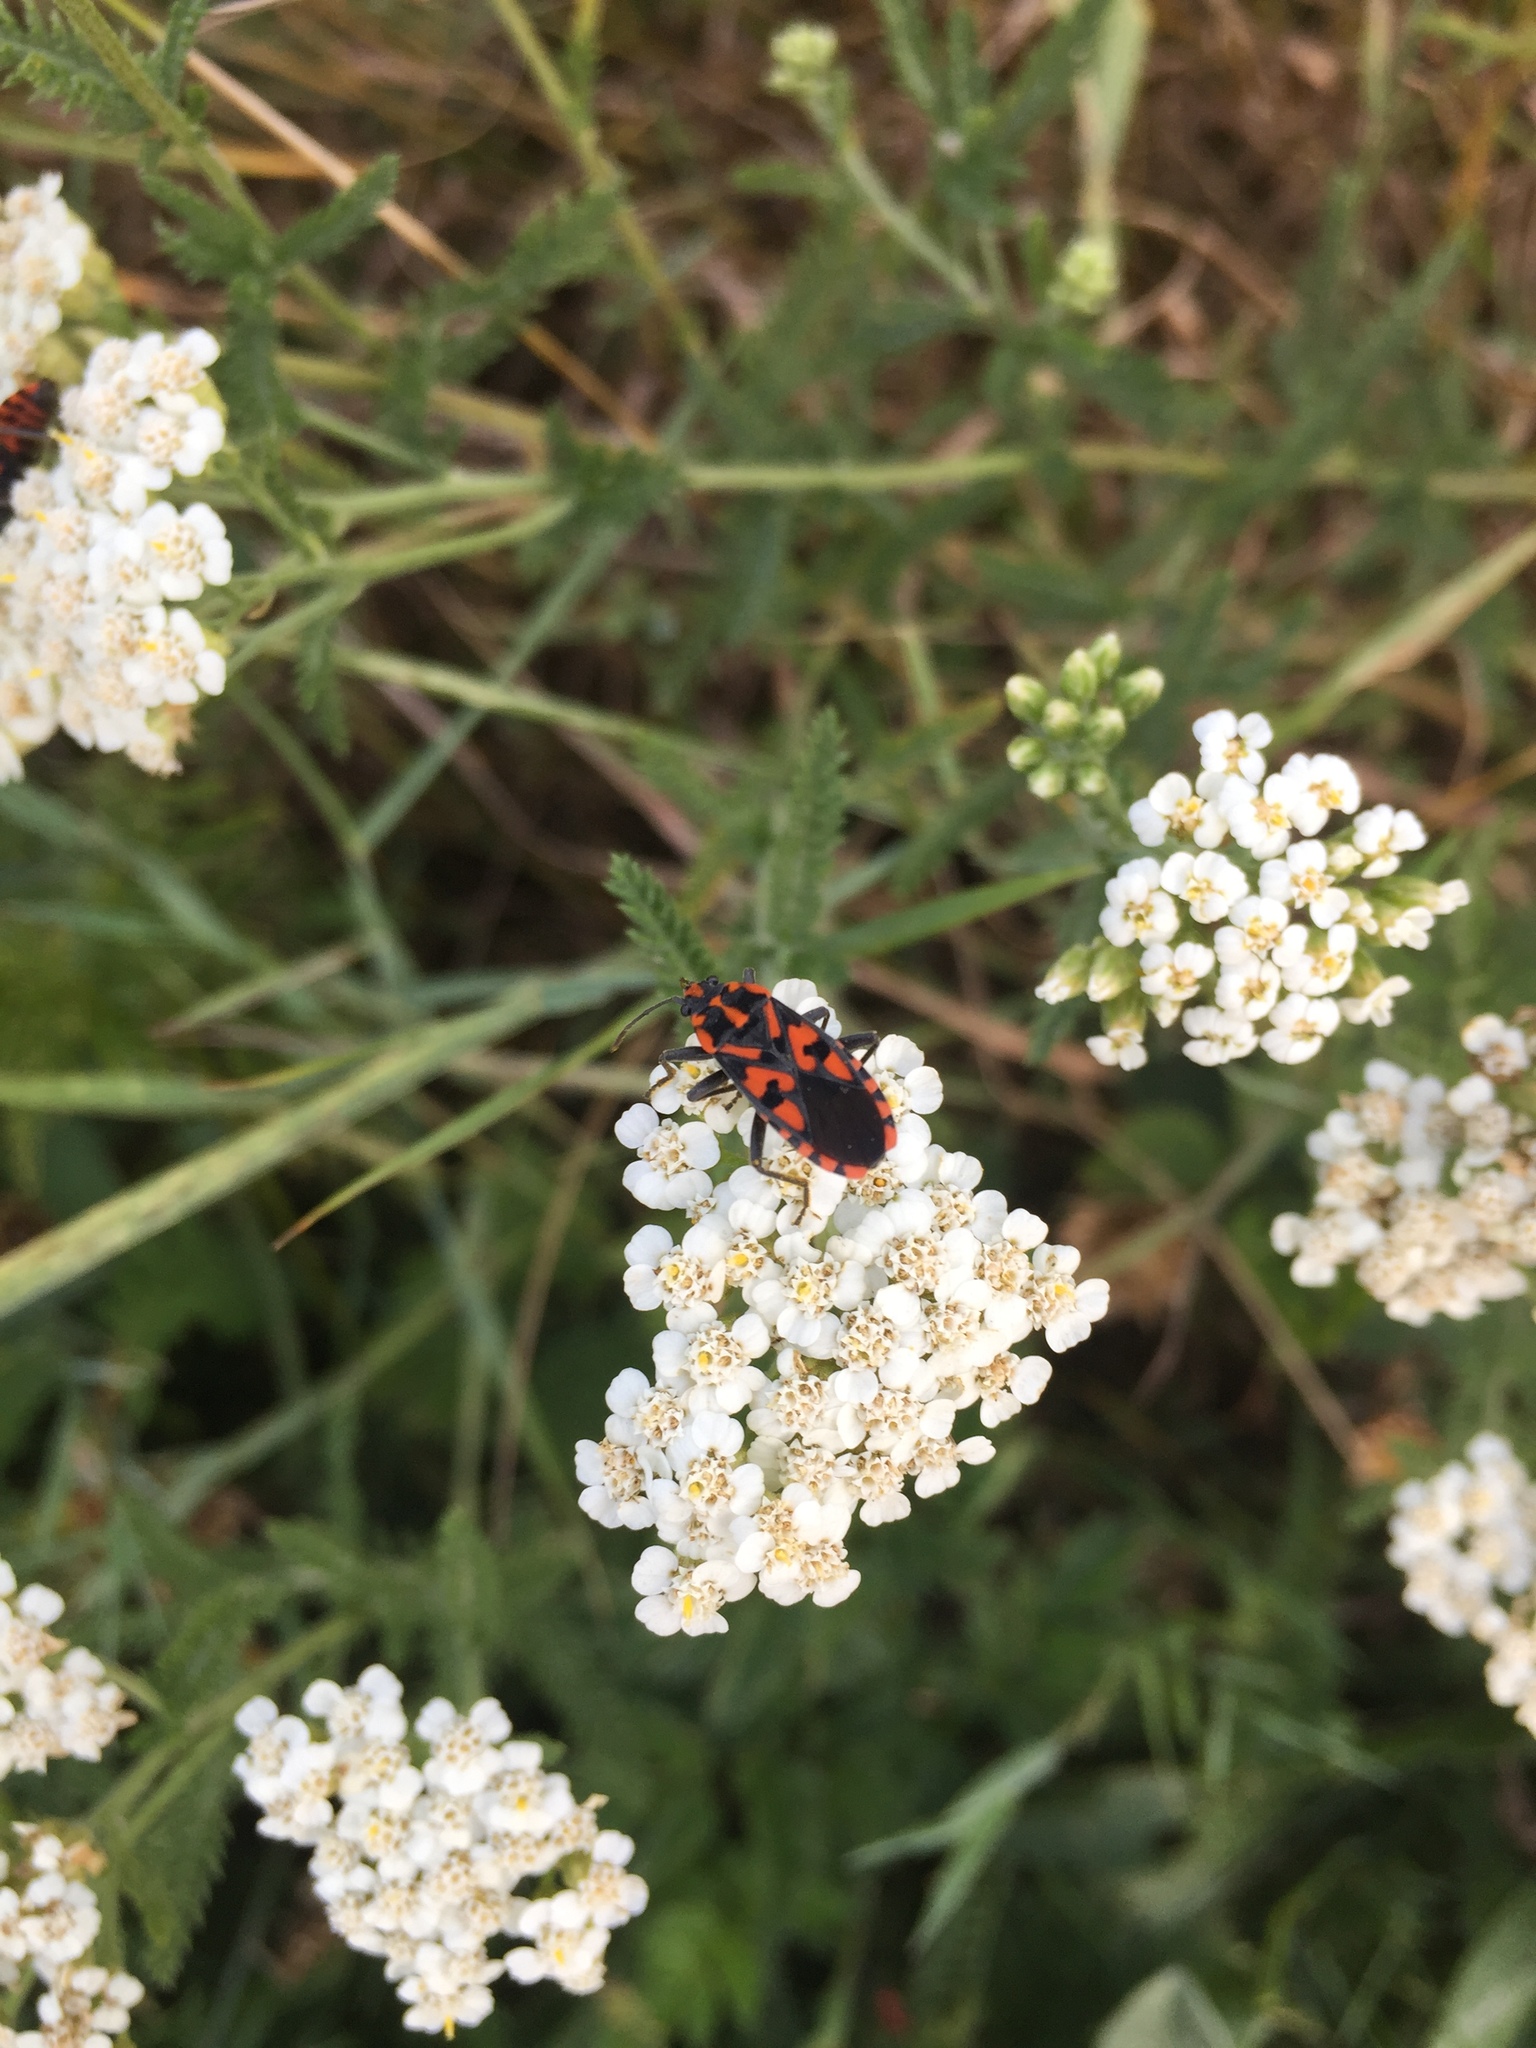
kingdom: Animalia
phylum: Arthropoda
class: Insecta
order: Hemiptera
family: Lygaeidae
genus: Spilostethus
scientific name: Spilostethus saxatilis
